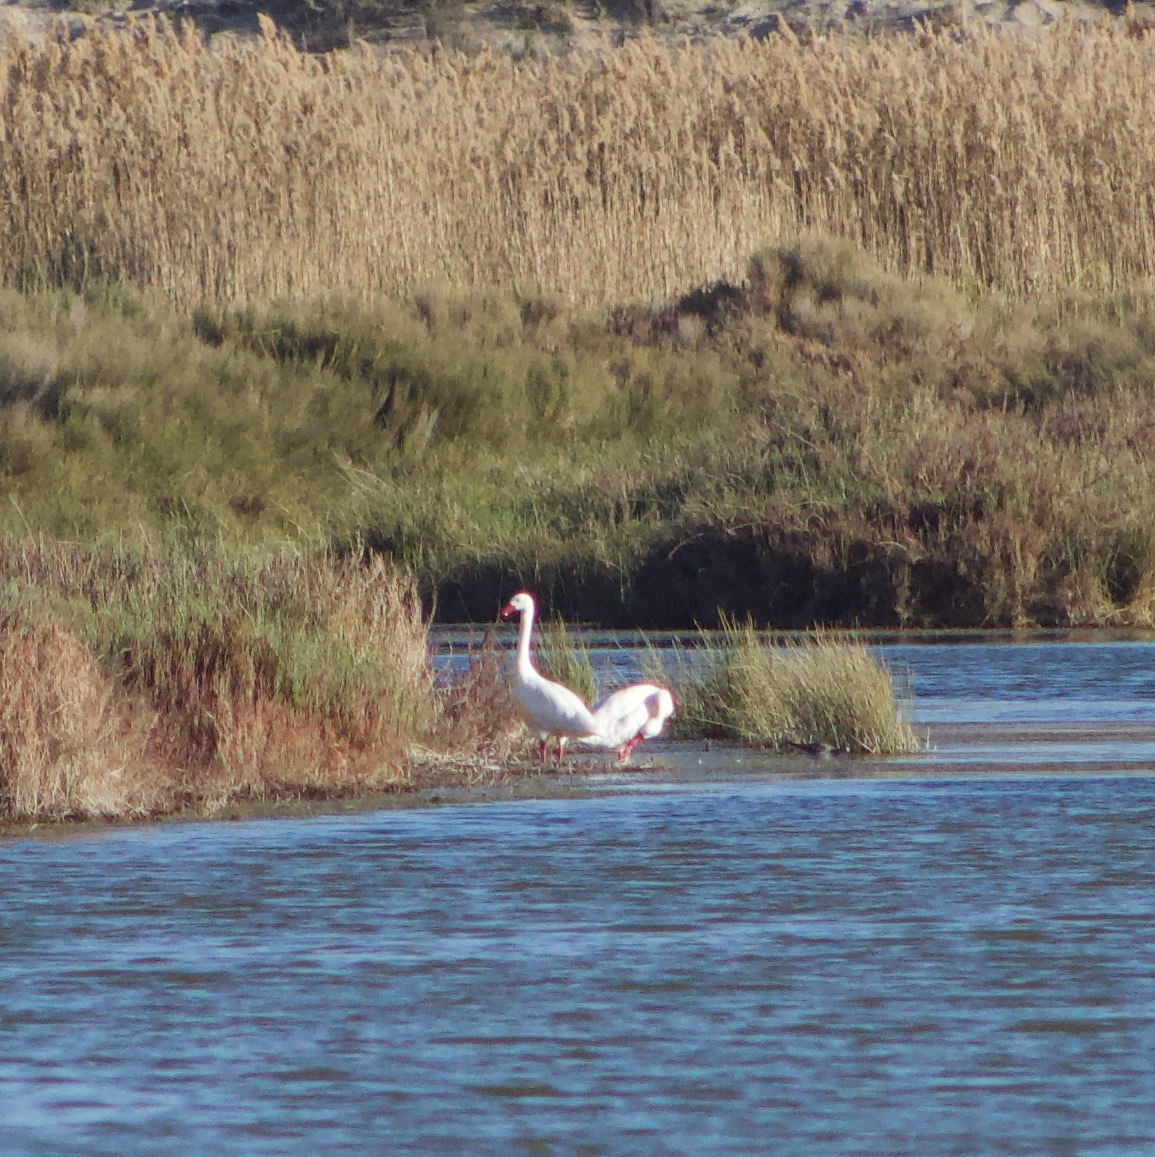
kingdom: Animalia
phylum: Chordata
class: Aves
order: Anseriformes
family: Anatidae
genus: Coscoroba
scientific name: Coscoroba coscoroba
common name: Coscoroba swan
